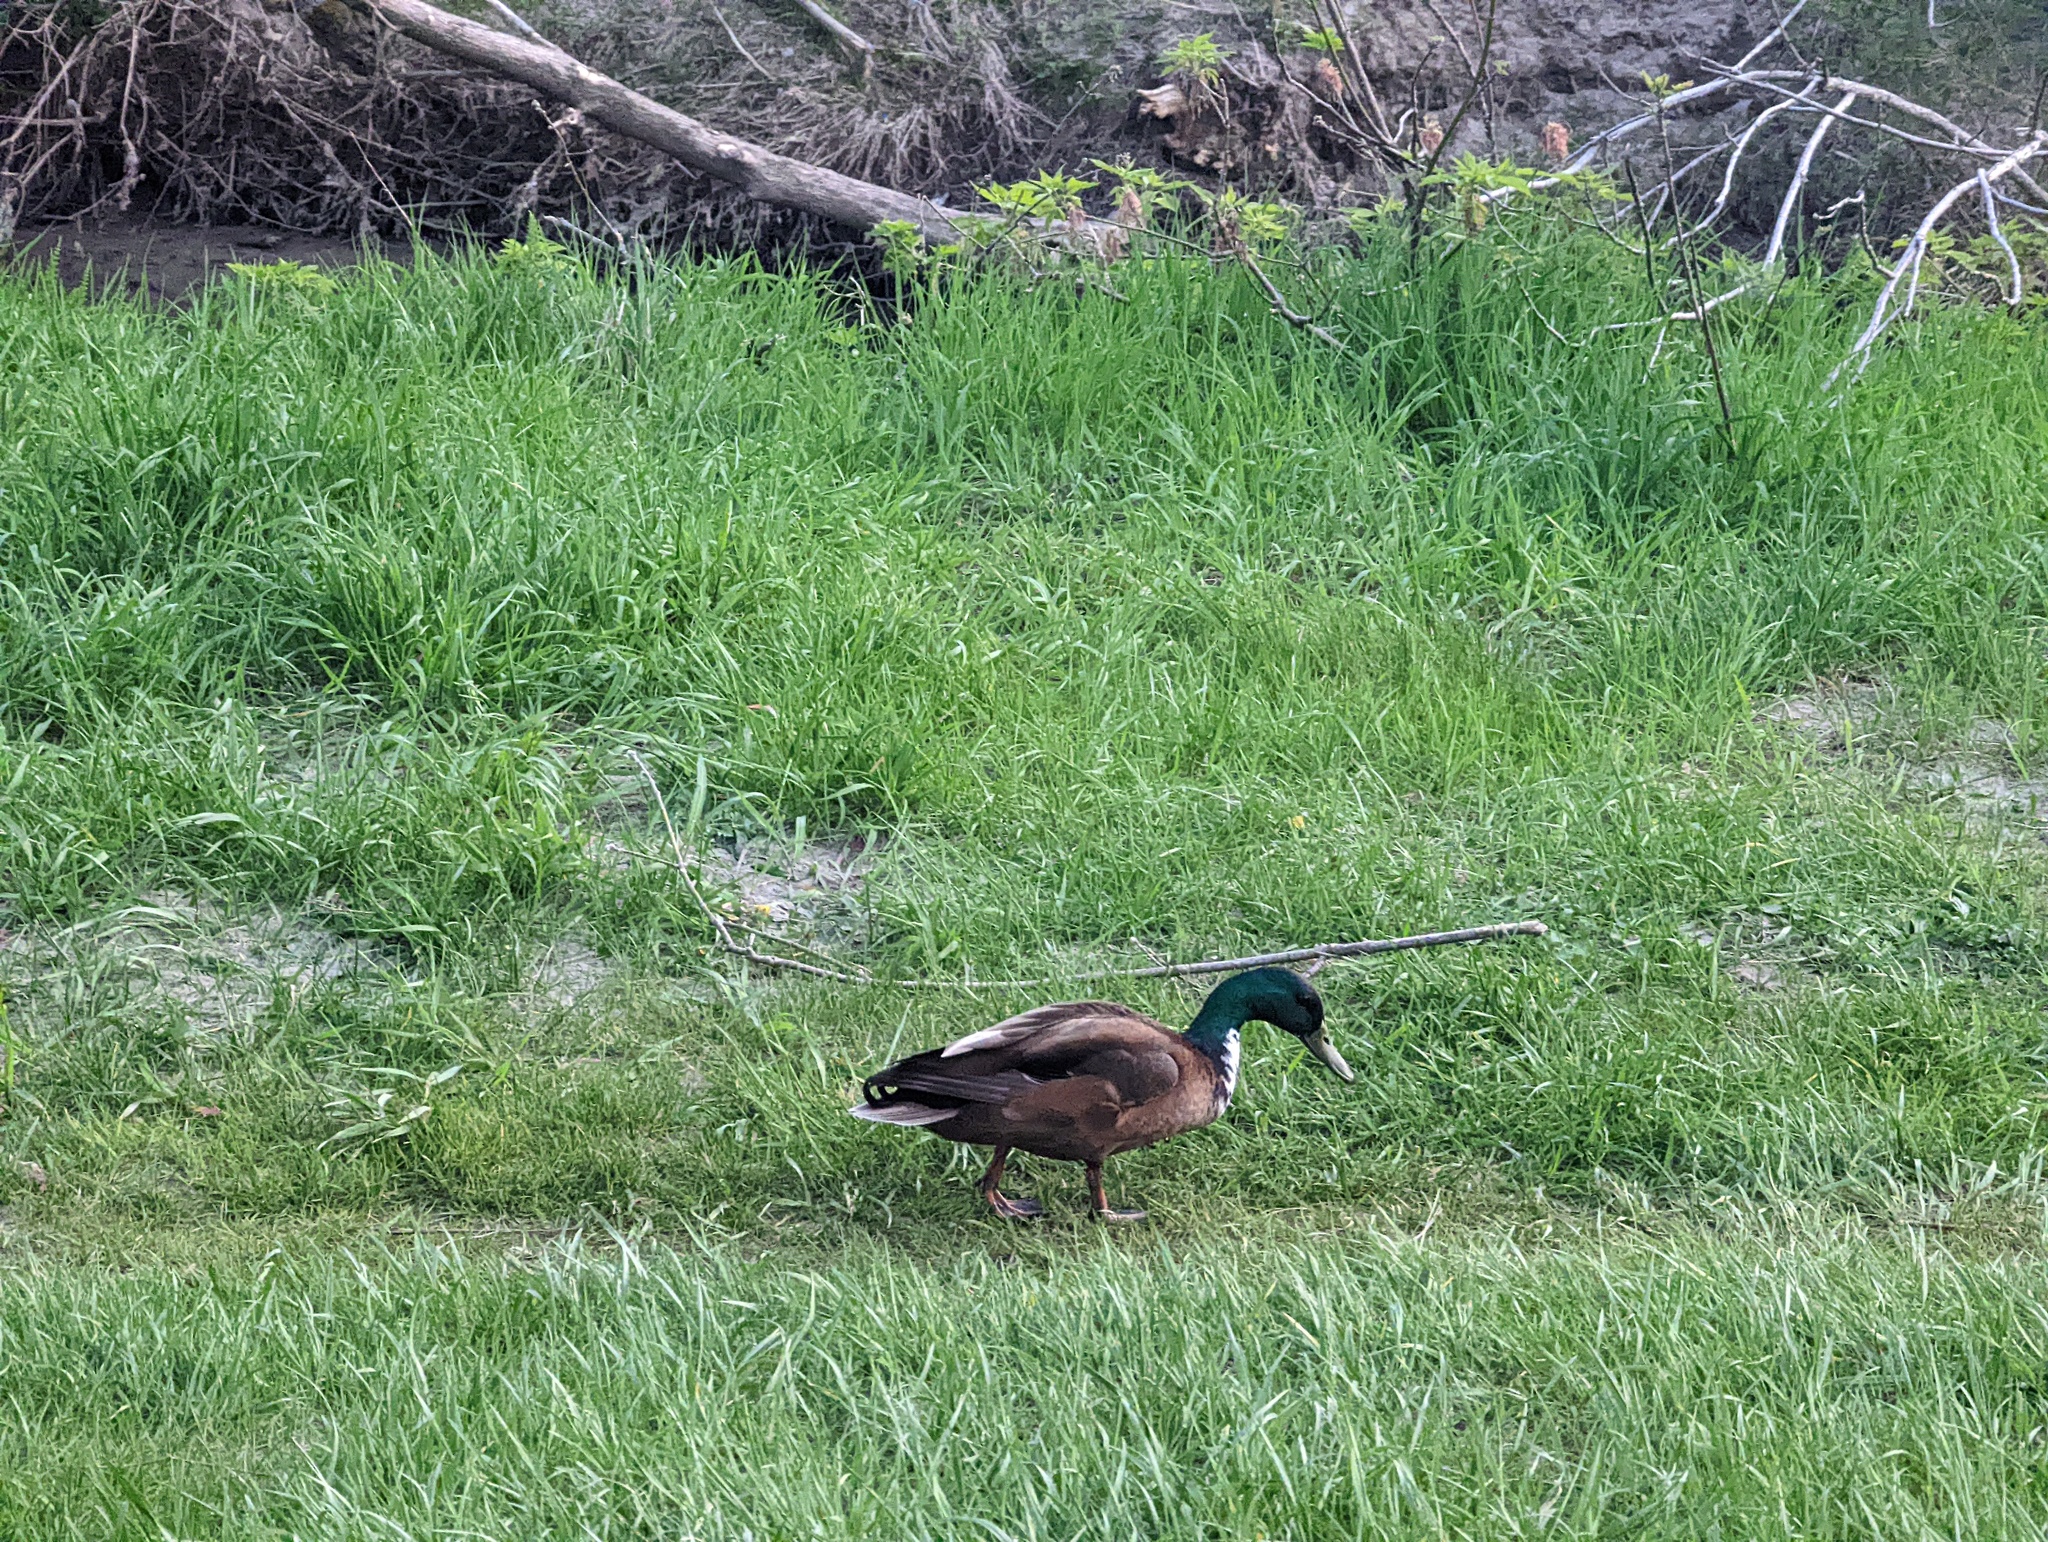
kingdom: Animalia
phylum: Chordata
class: Aves
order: Anseriformes
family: Anatidae
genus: Anas
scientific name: Anas platyrhynchos
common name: Mallard
